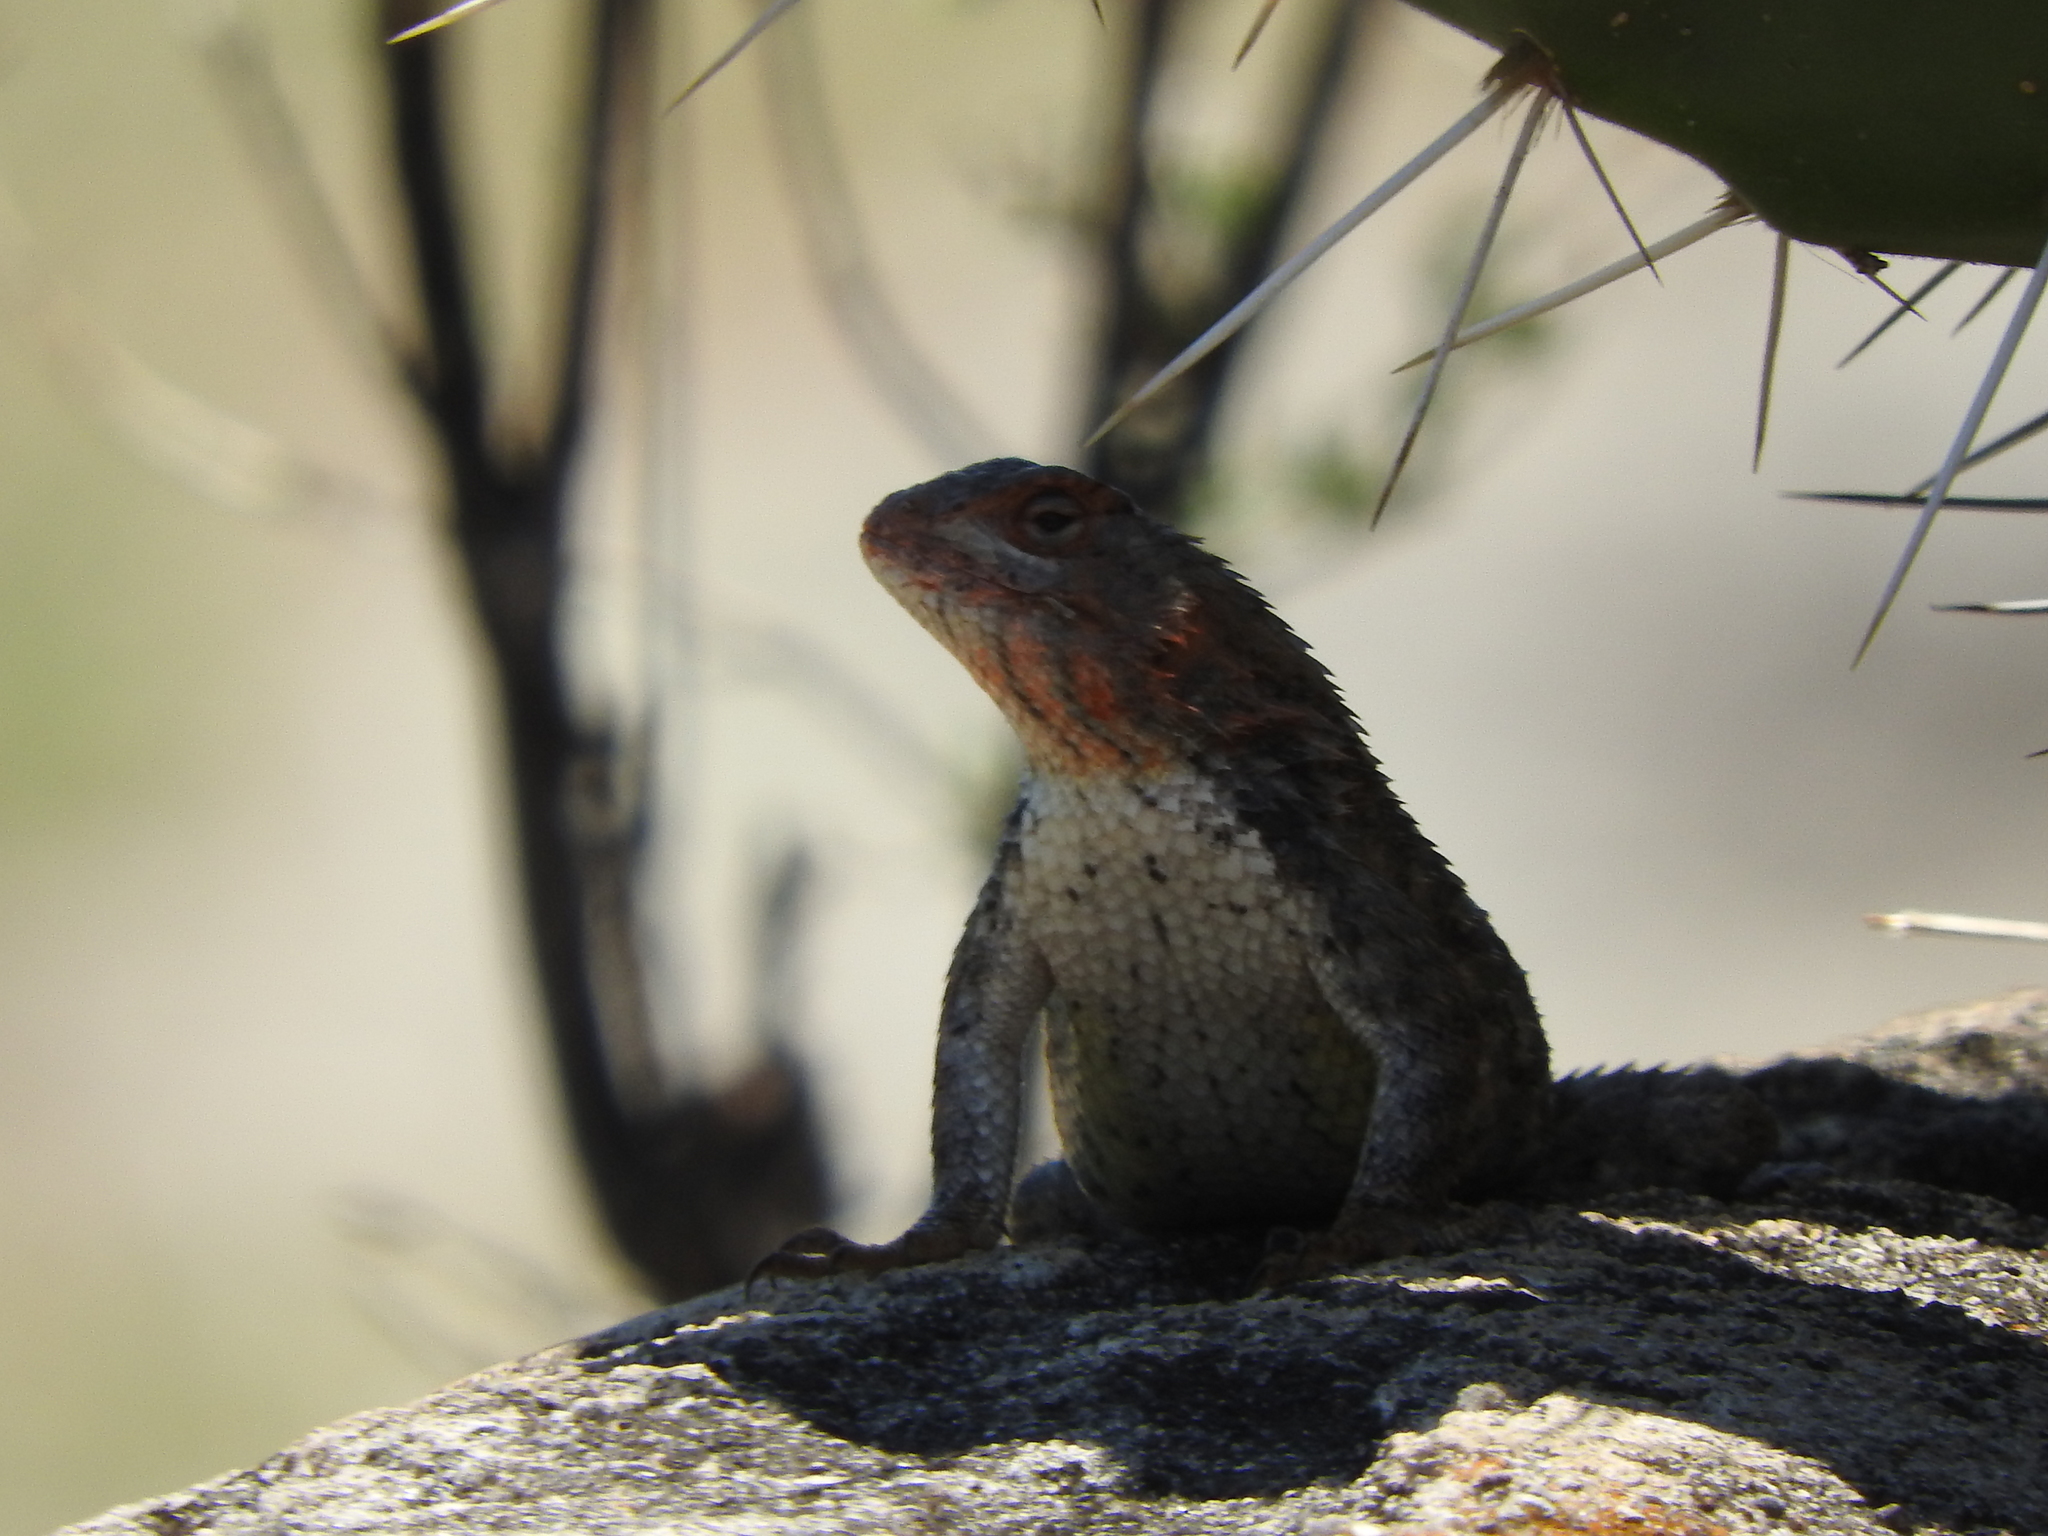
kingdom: Animalia
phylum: Chordata
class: Squamata
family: Phrynosomatidae
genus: Sceloporus
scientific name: Sceloporus spinosus
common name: Blue-spotted spiny lizard [caeruleopunctatus]
